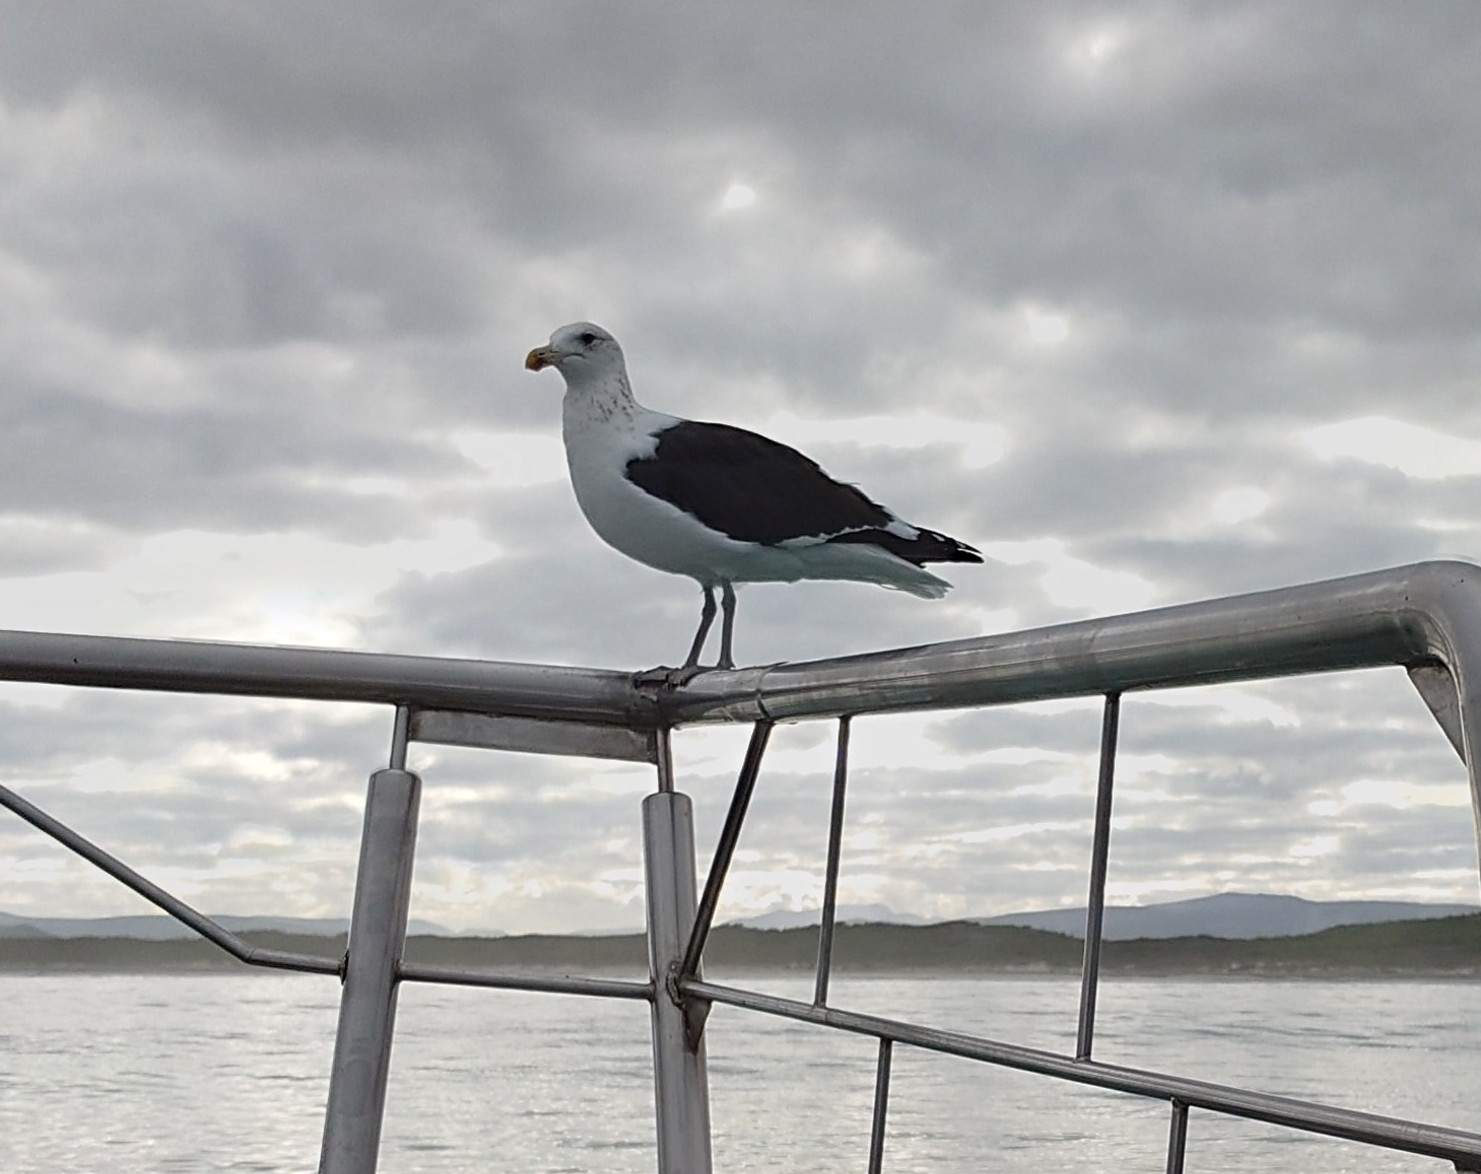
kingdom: Animalia
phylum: Chordata
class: Aves
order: Charadriiformes
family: Laridae
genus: Larus
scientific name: Larus dominicanus
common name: Kelp gull
